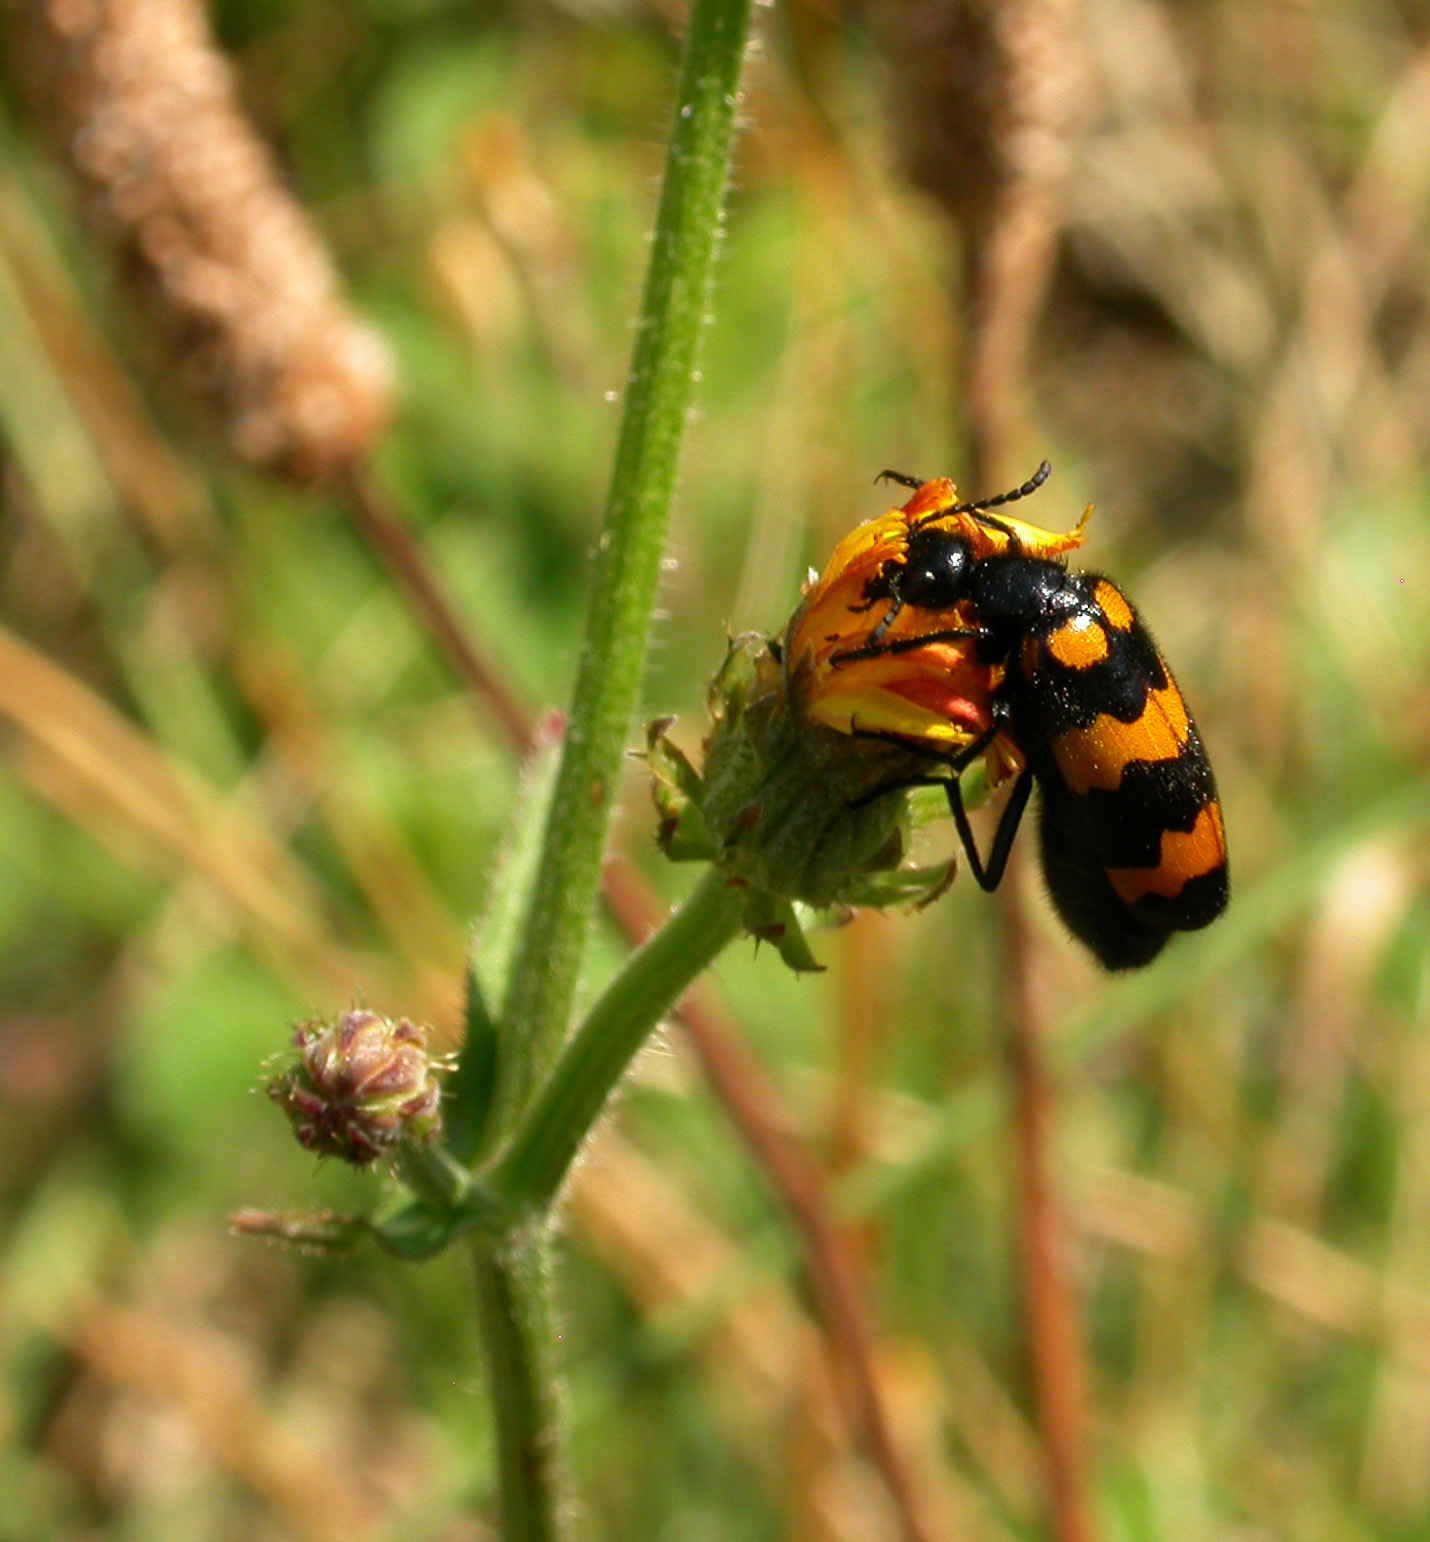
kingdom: Animalia
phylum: Arthropoda
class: Insecta
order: Coleoptera
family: Meloidae
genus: Mylabris
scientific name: Mylabris variabilis
